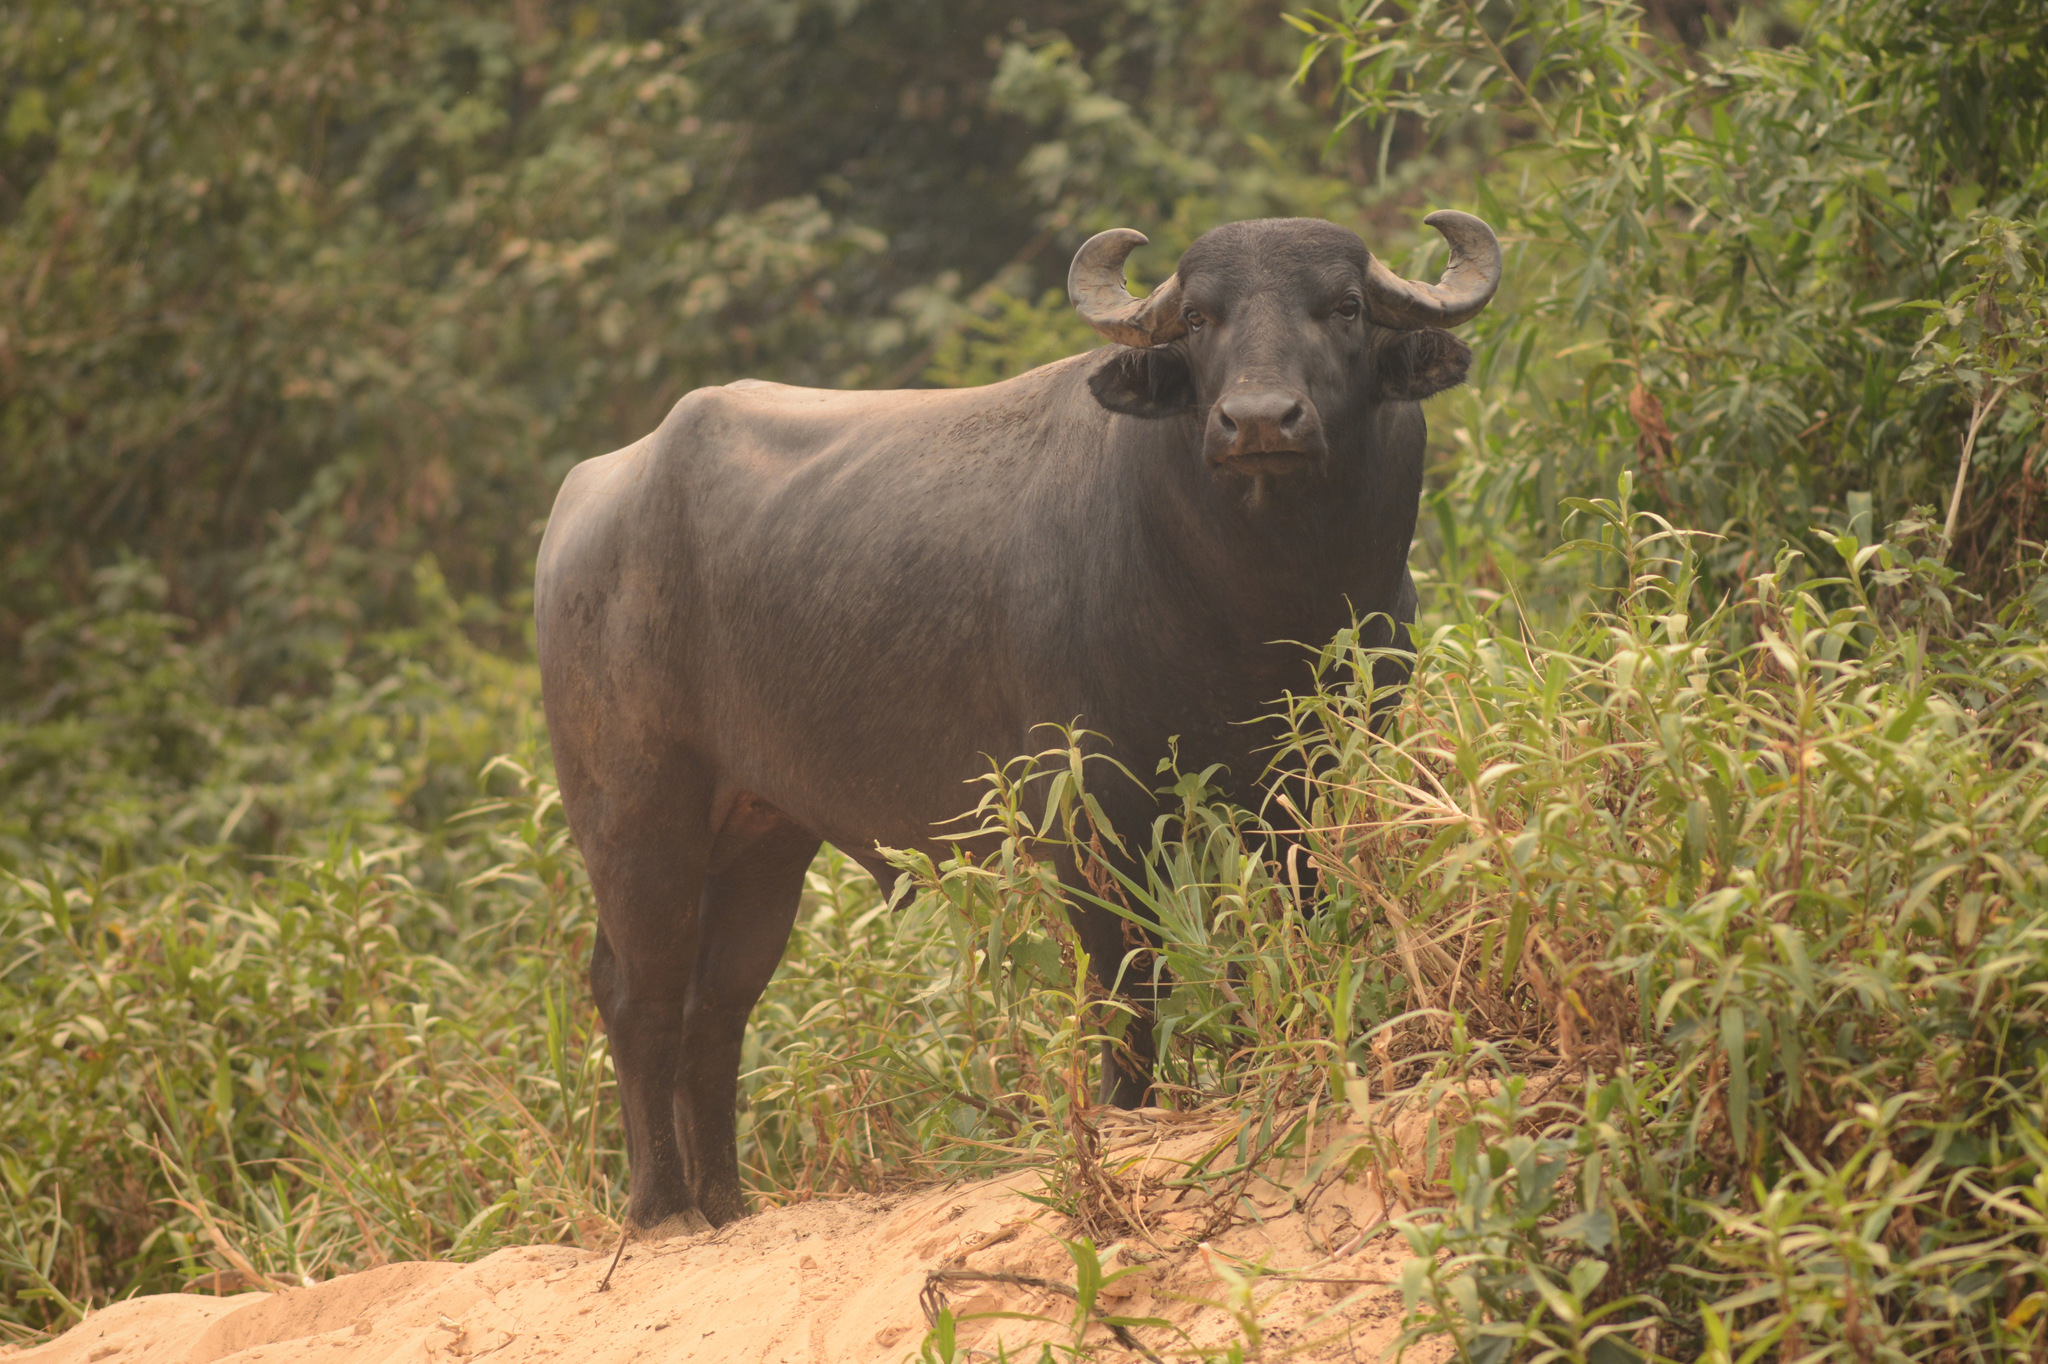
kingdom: Animalia
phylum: Chordata
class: Mammalia
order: Artiodactyla
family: Bovidae
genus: Bubalus
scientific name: Bubalus bubalis
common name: Water buffalo
